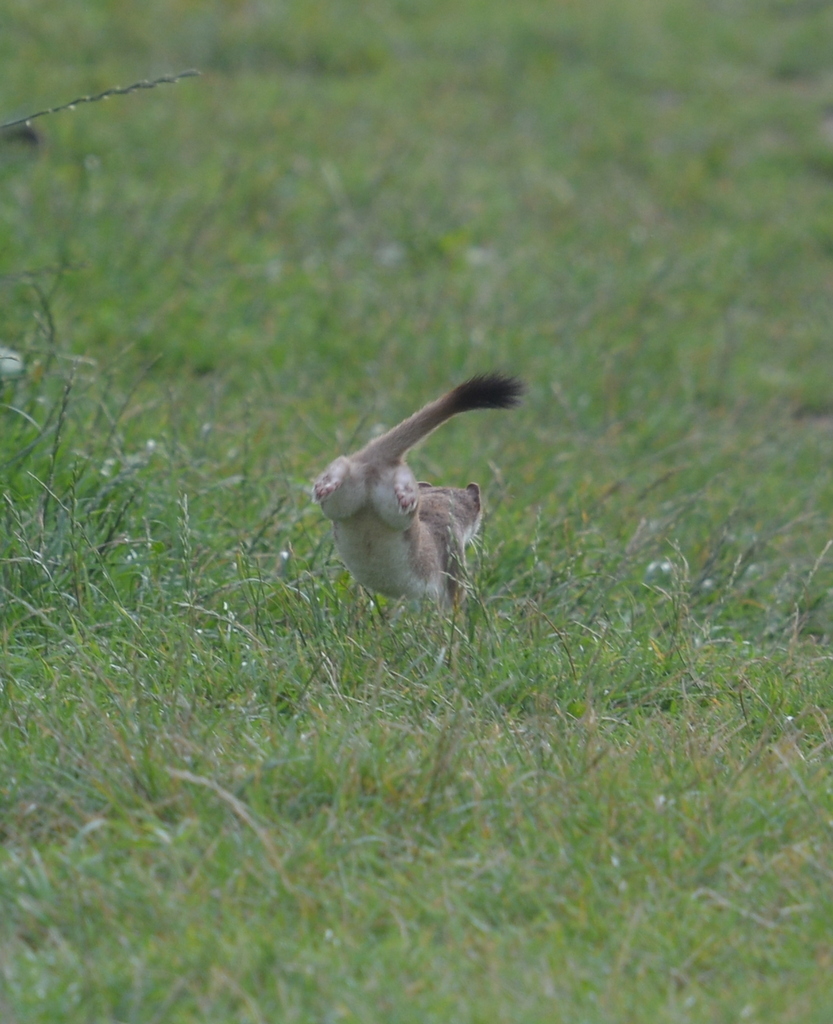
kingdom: Animalia
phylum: Chordata
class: Mammalia
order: Carnivora
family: Mustelidae
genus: Mustela
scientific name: Mustela erminea
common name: Stoat
